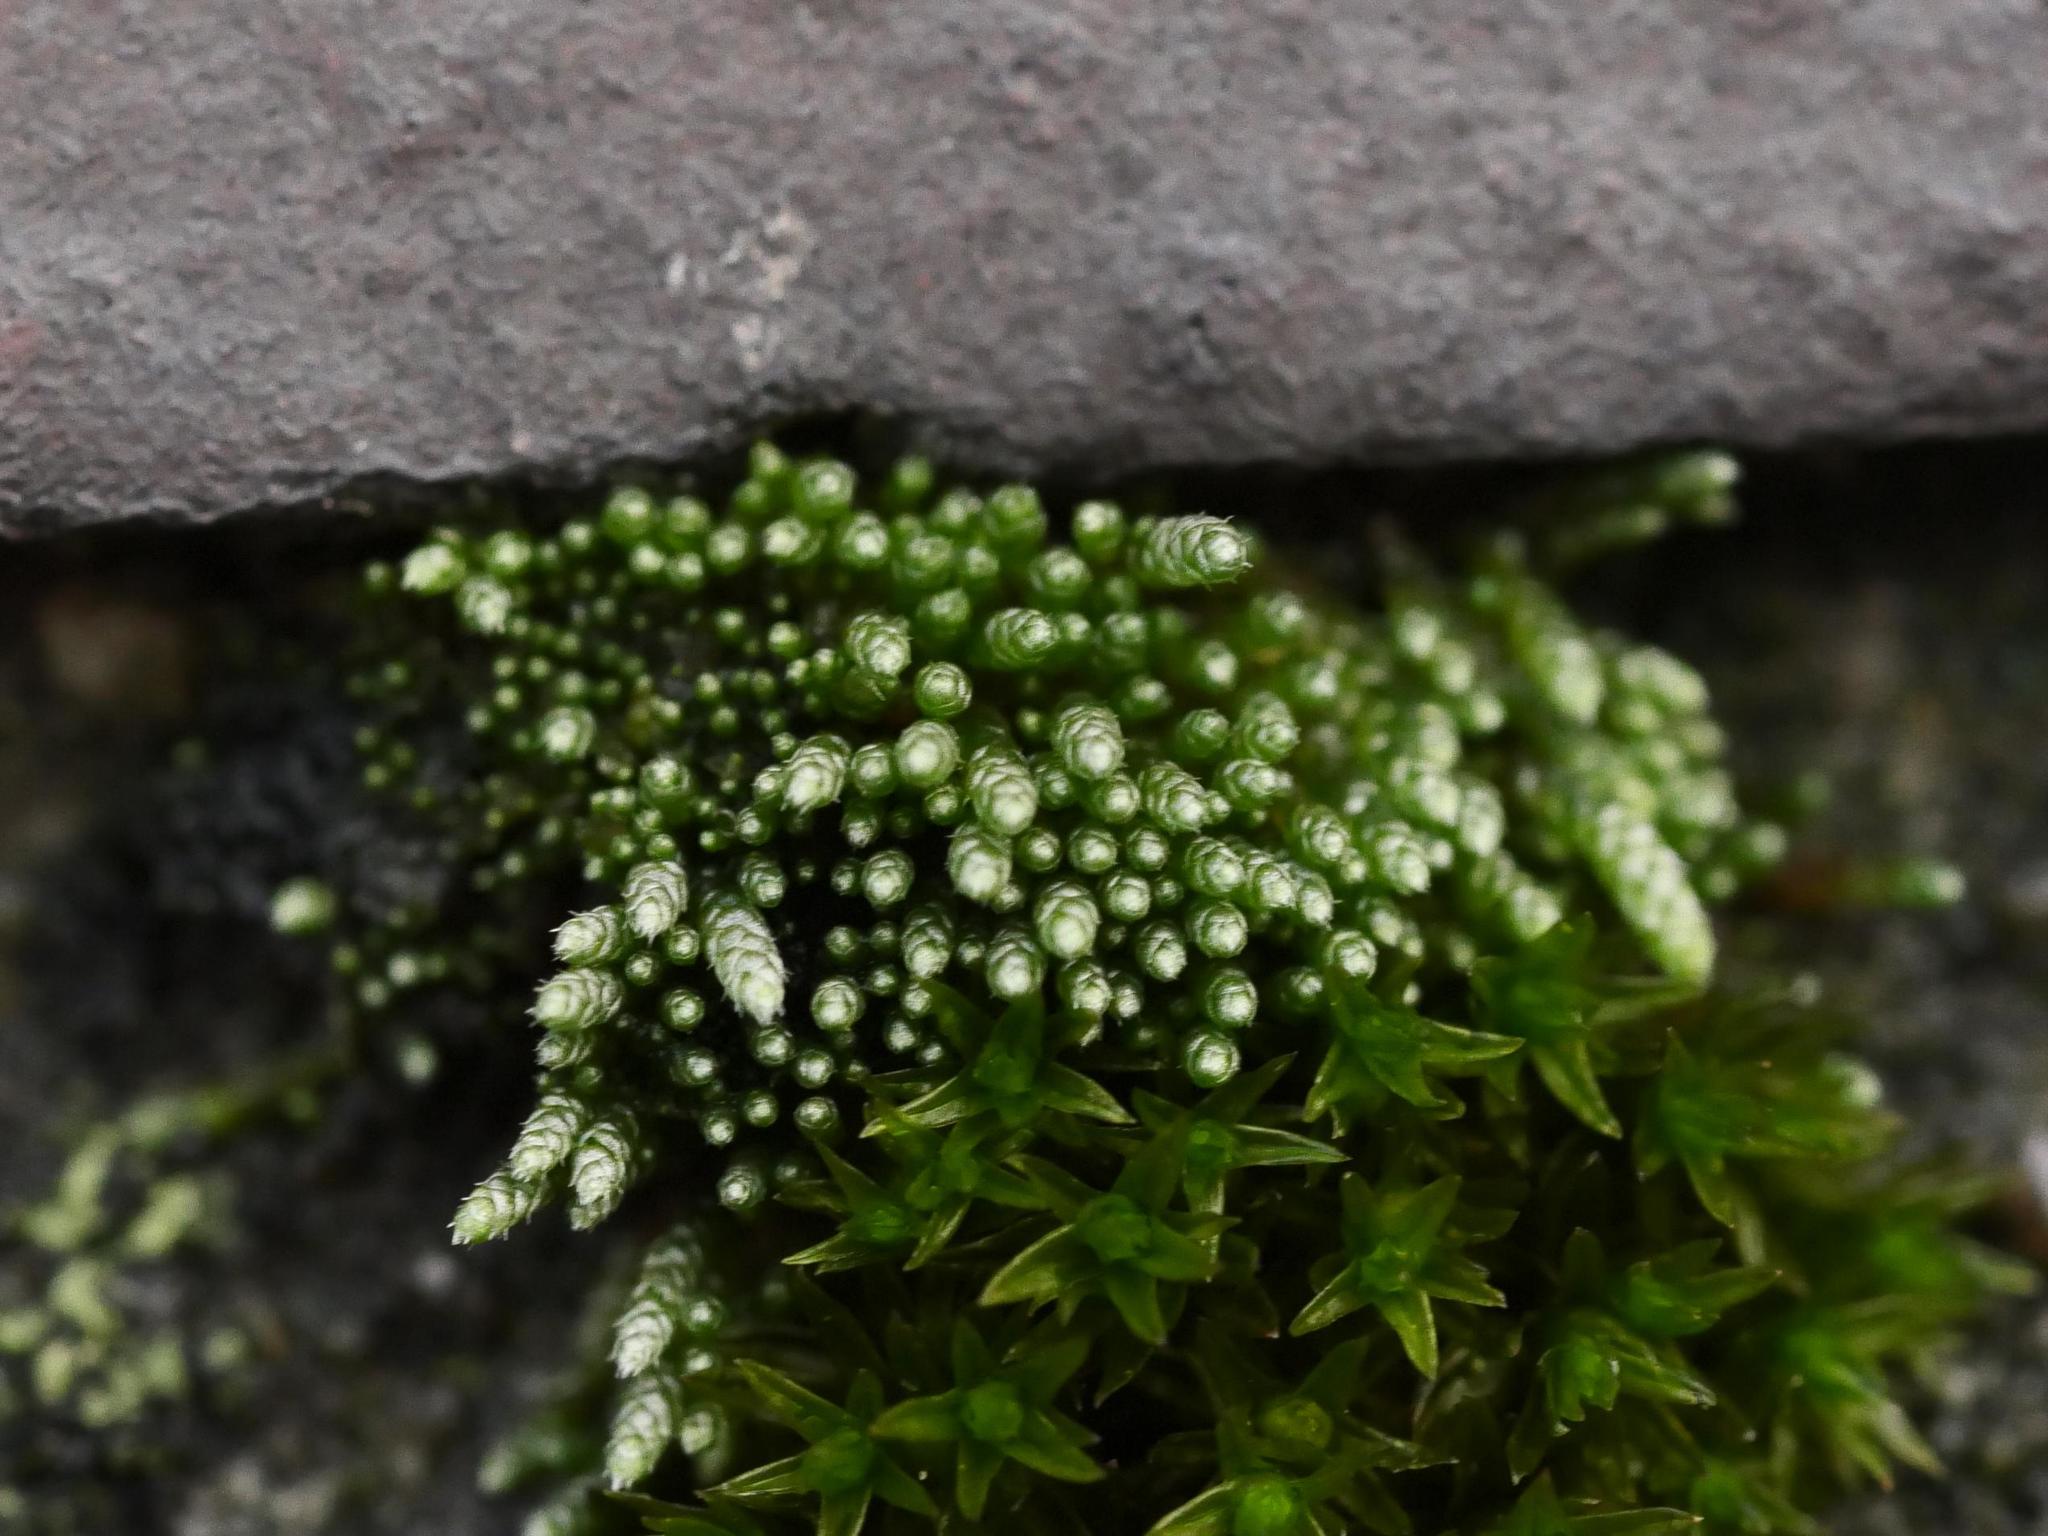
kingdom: Plantae
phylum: Bryophyta
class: Bryopsida
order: Bryales
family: Bryaceae
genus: Bryum
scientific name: Bryum argenteum
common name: Silver-moss
